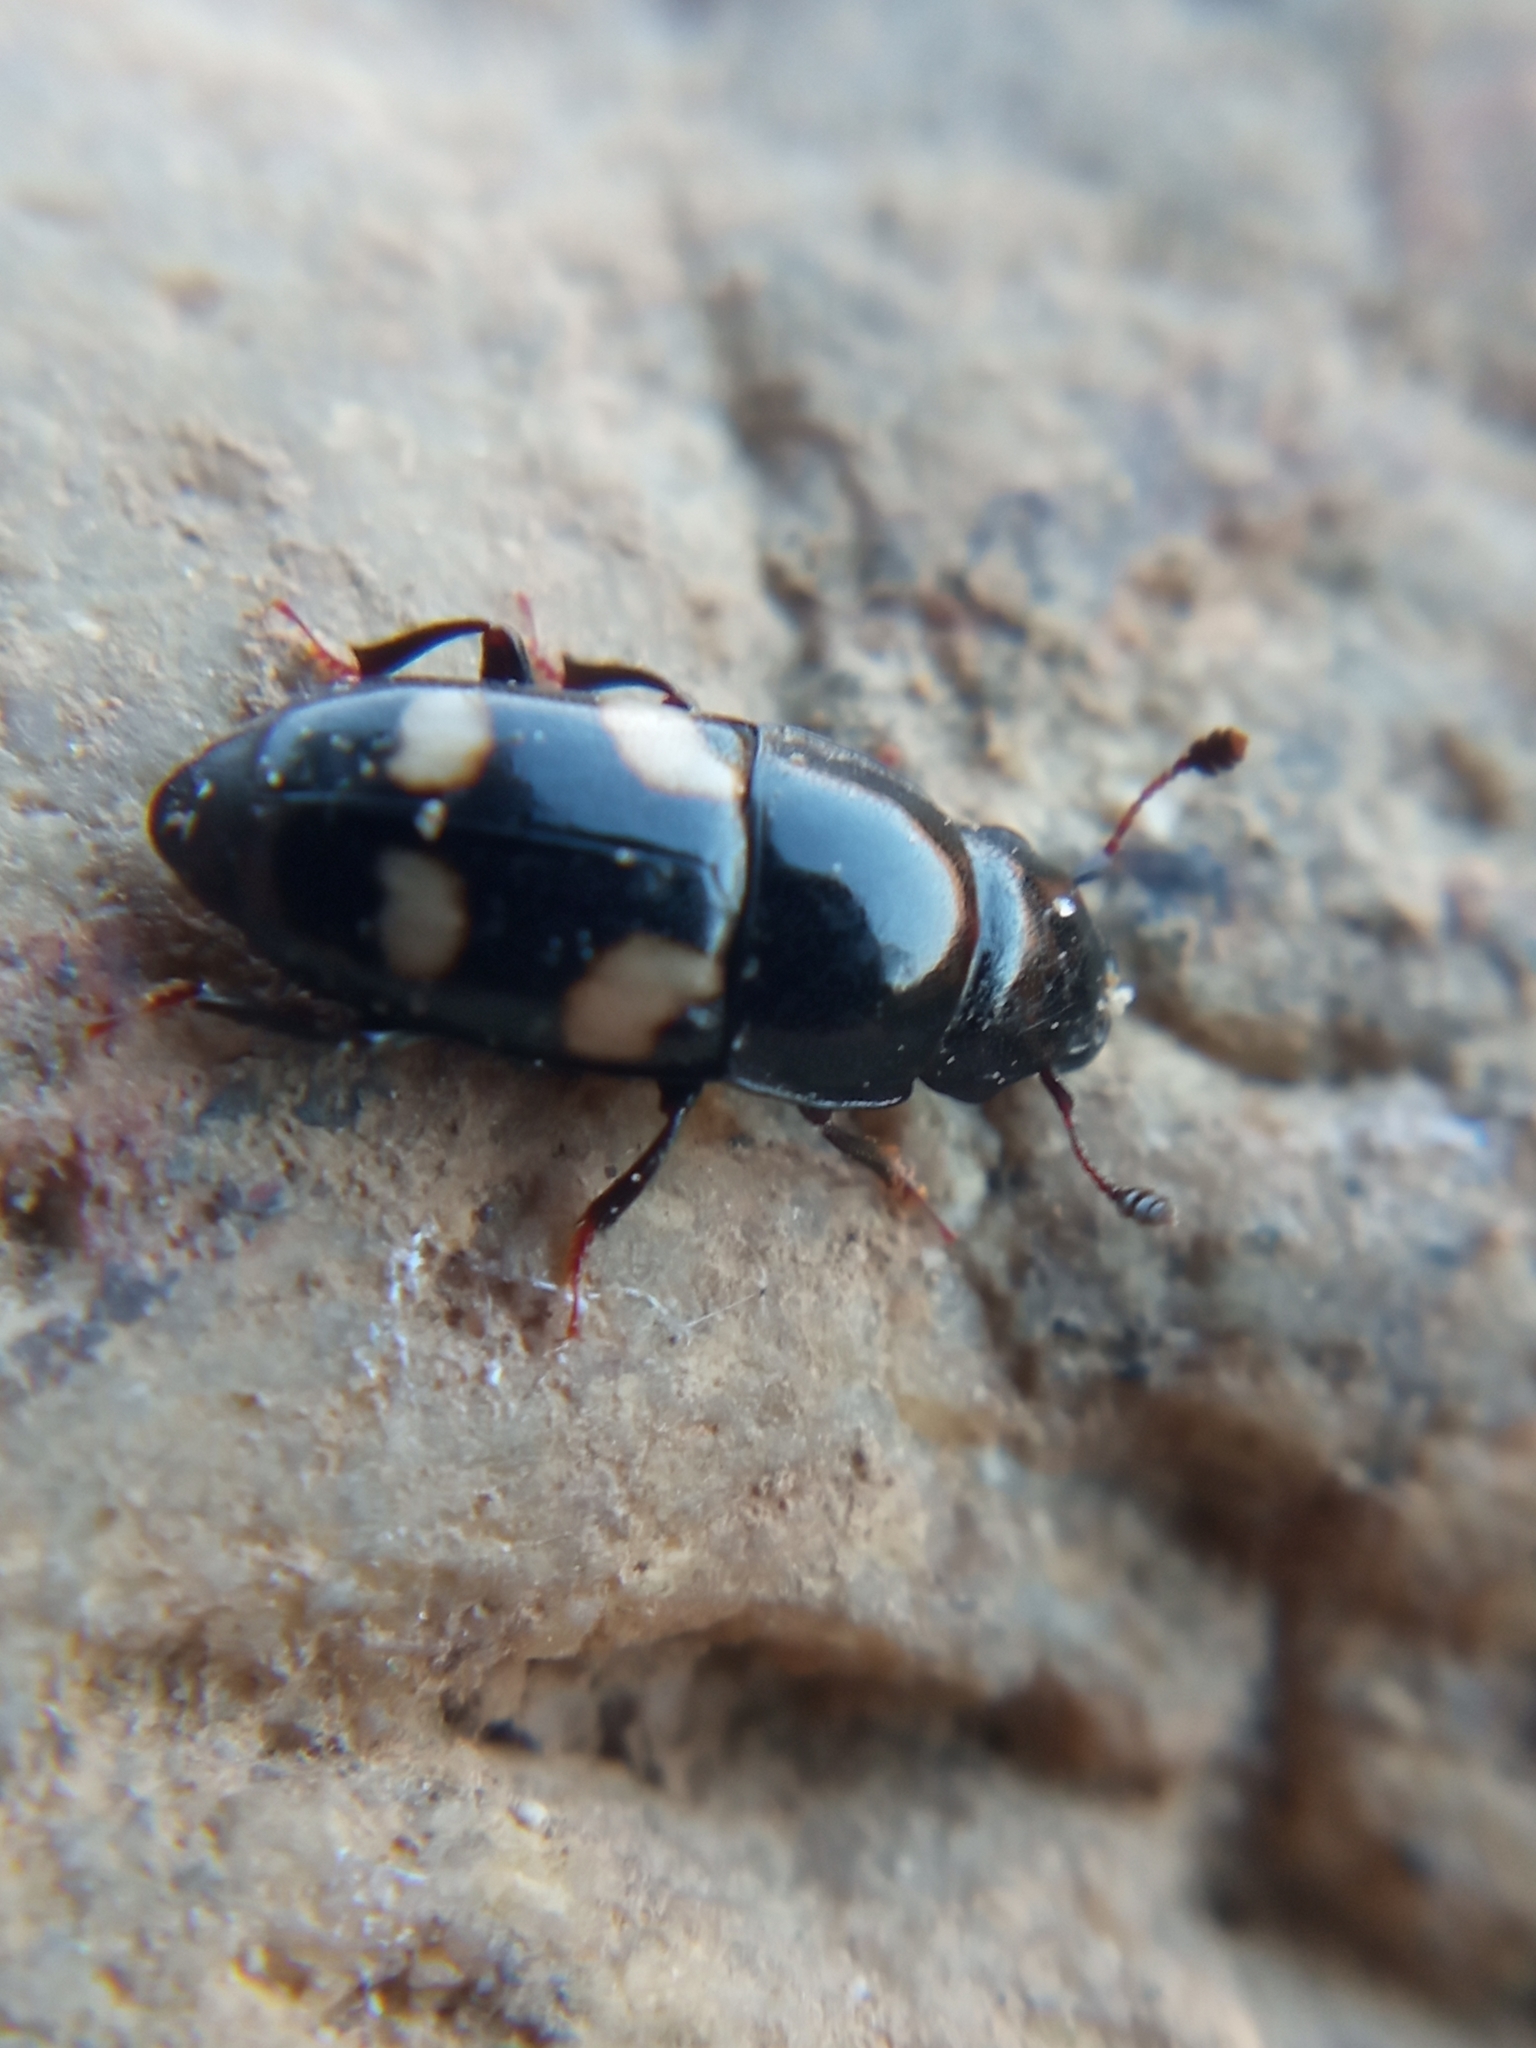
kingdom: Animalia
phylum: Arthropoda
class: Insecta
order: Coleoptera
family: Nitidulidae
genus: Glischrochilus
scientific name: Glischrochilus quadrisignatus
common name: Picnic beetle
